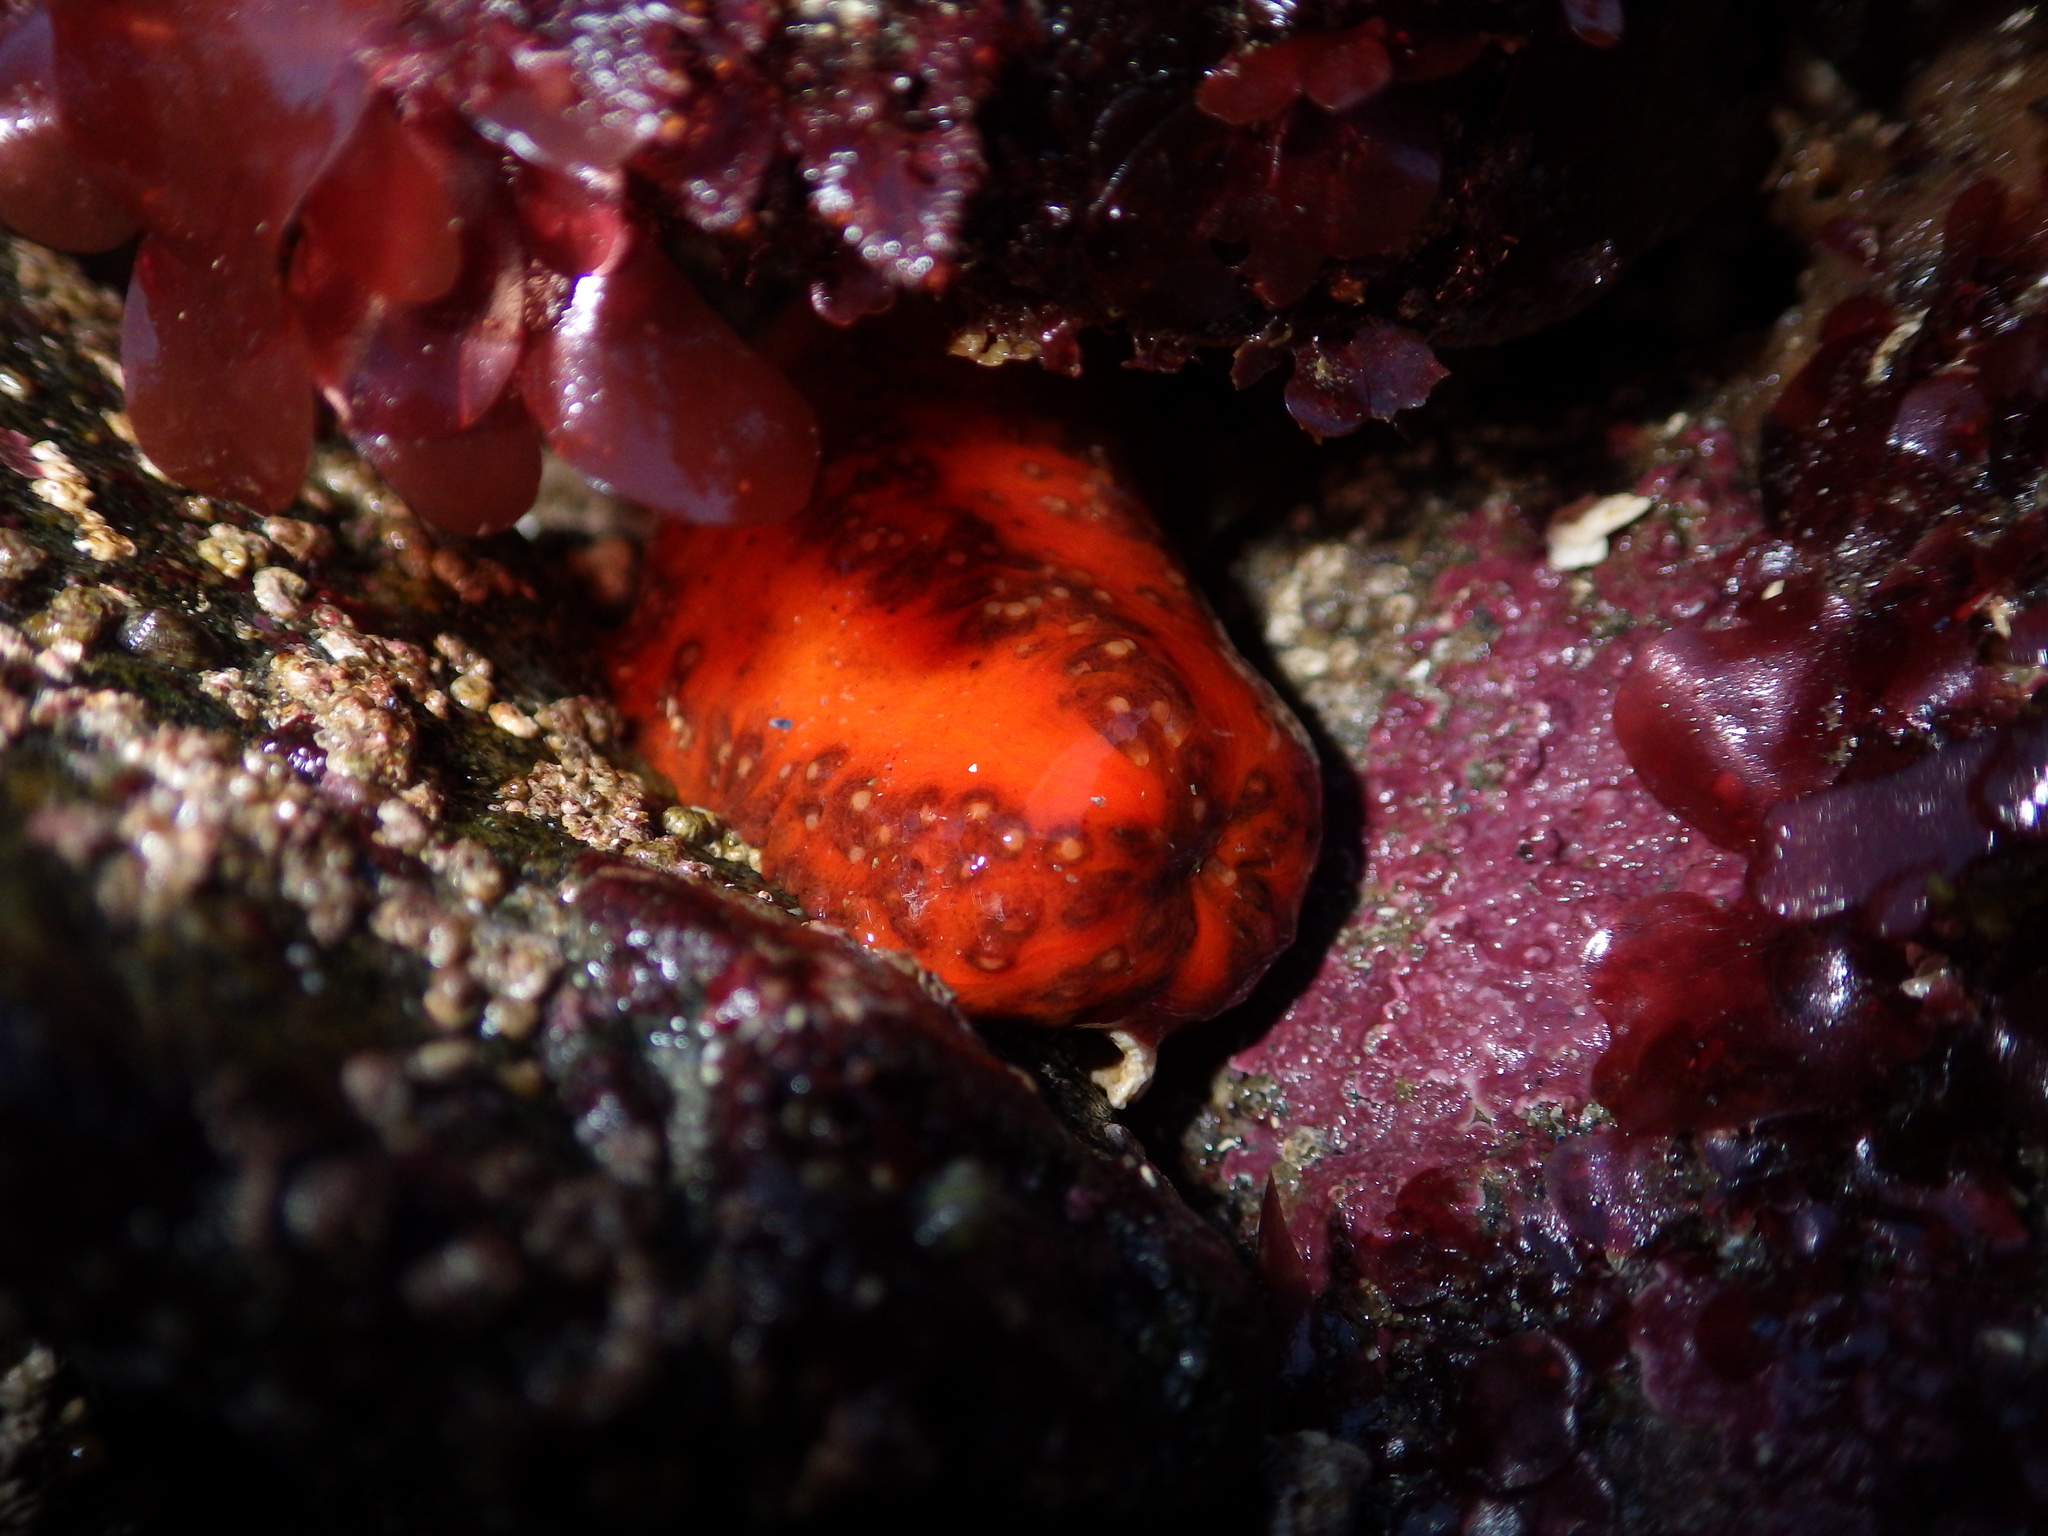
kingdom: Animalia
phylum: Echinodermata
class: Holothuroidea
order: Dendrochirotida
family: Cucumariidae
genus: Cucumaria
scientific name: Cucumaria miniata
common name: Orange sea cucumber
